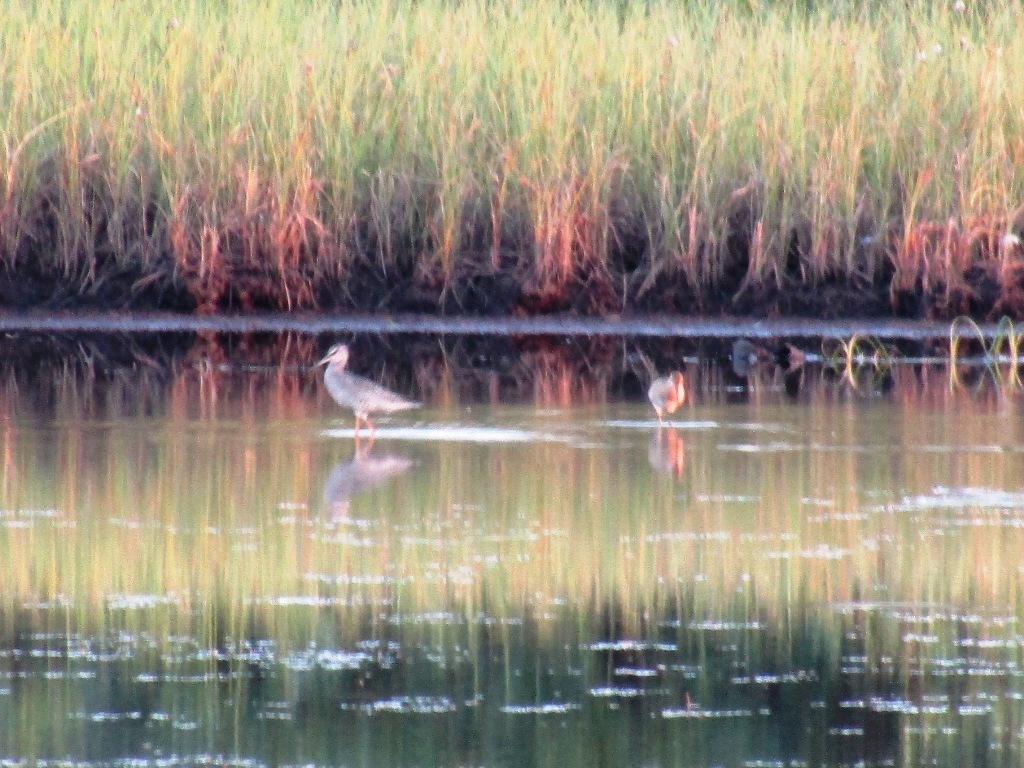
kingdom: Animalia
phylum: Chordata
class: Aves
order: Charadriiformes
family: Scolopacidae
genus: Tringa
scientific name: Tringa erythropus
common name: Spotted redshank
